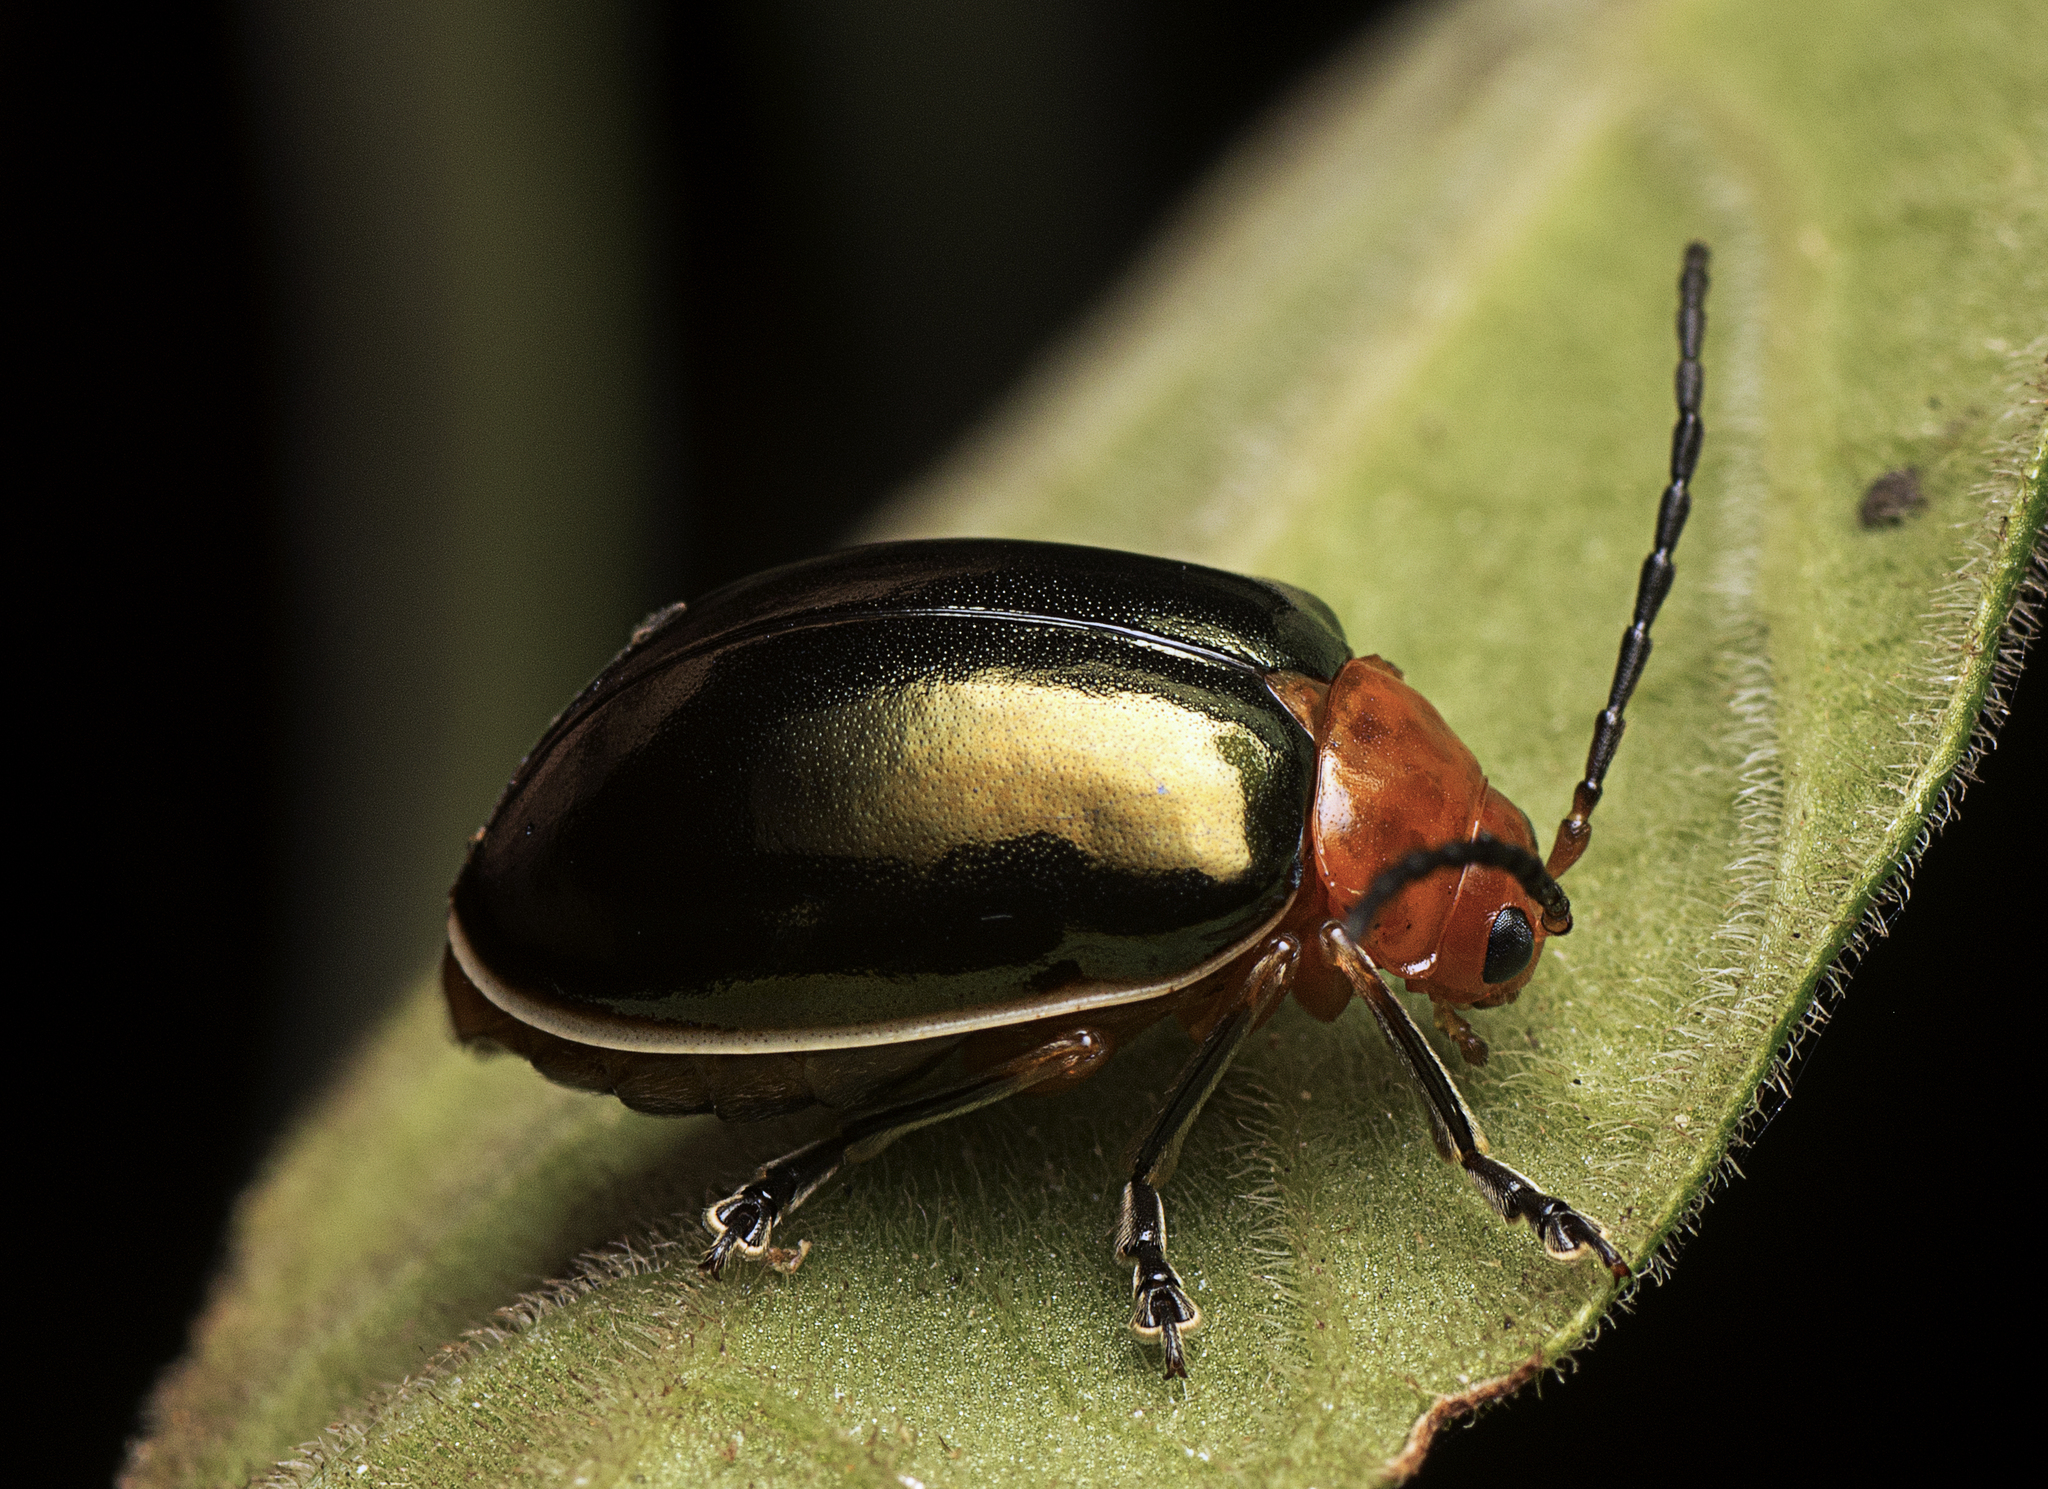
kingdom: Animalia
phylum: Arthropoda
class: Insecta
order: Coleoptera
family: Chrysomelidae
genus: Oides
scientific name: Oides
